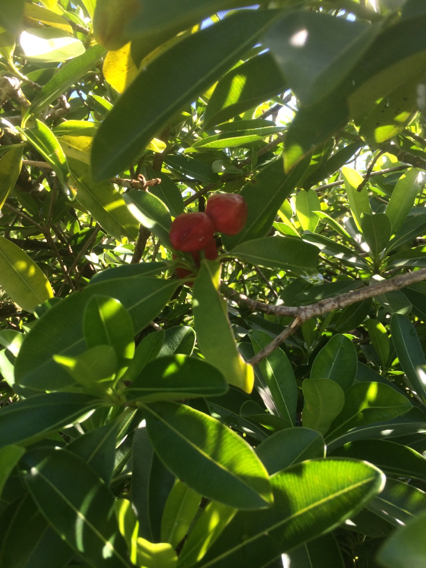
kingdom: Plantae
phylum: Tracheophyta
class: Magnoliopsida
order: Gentianales
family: Apocynaceae
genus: Ochrosia
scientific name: Ochrosia mariannensis
